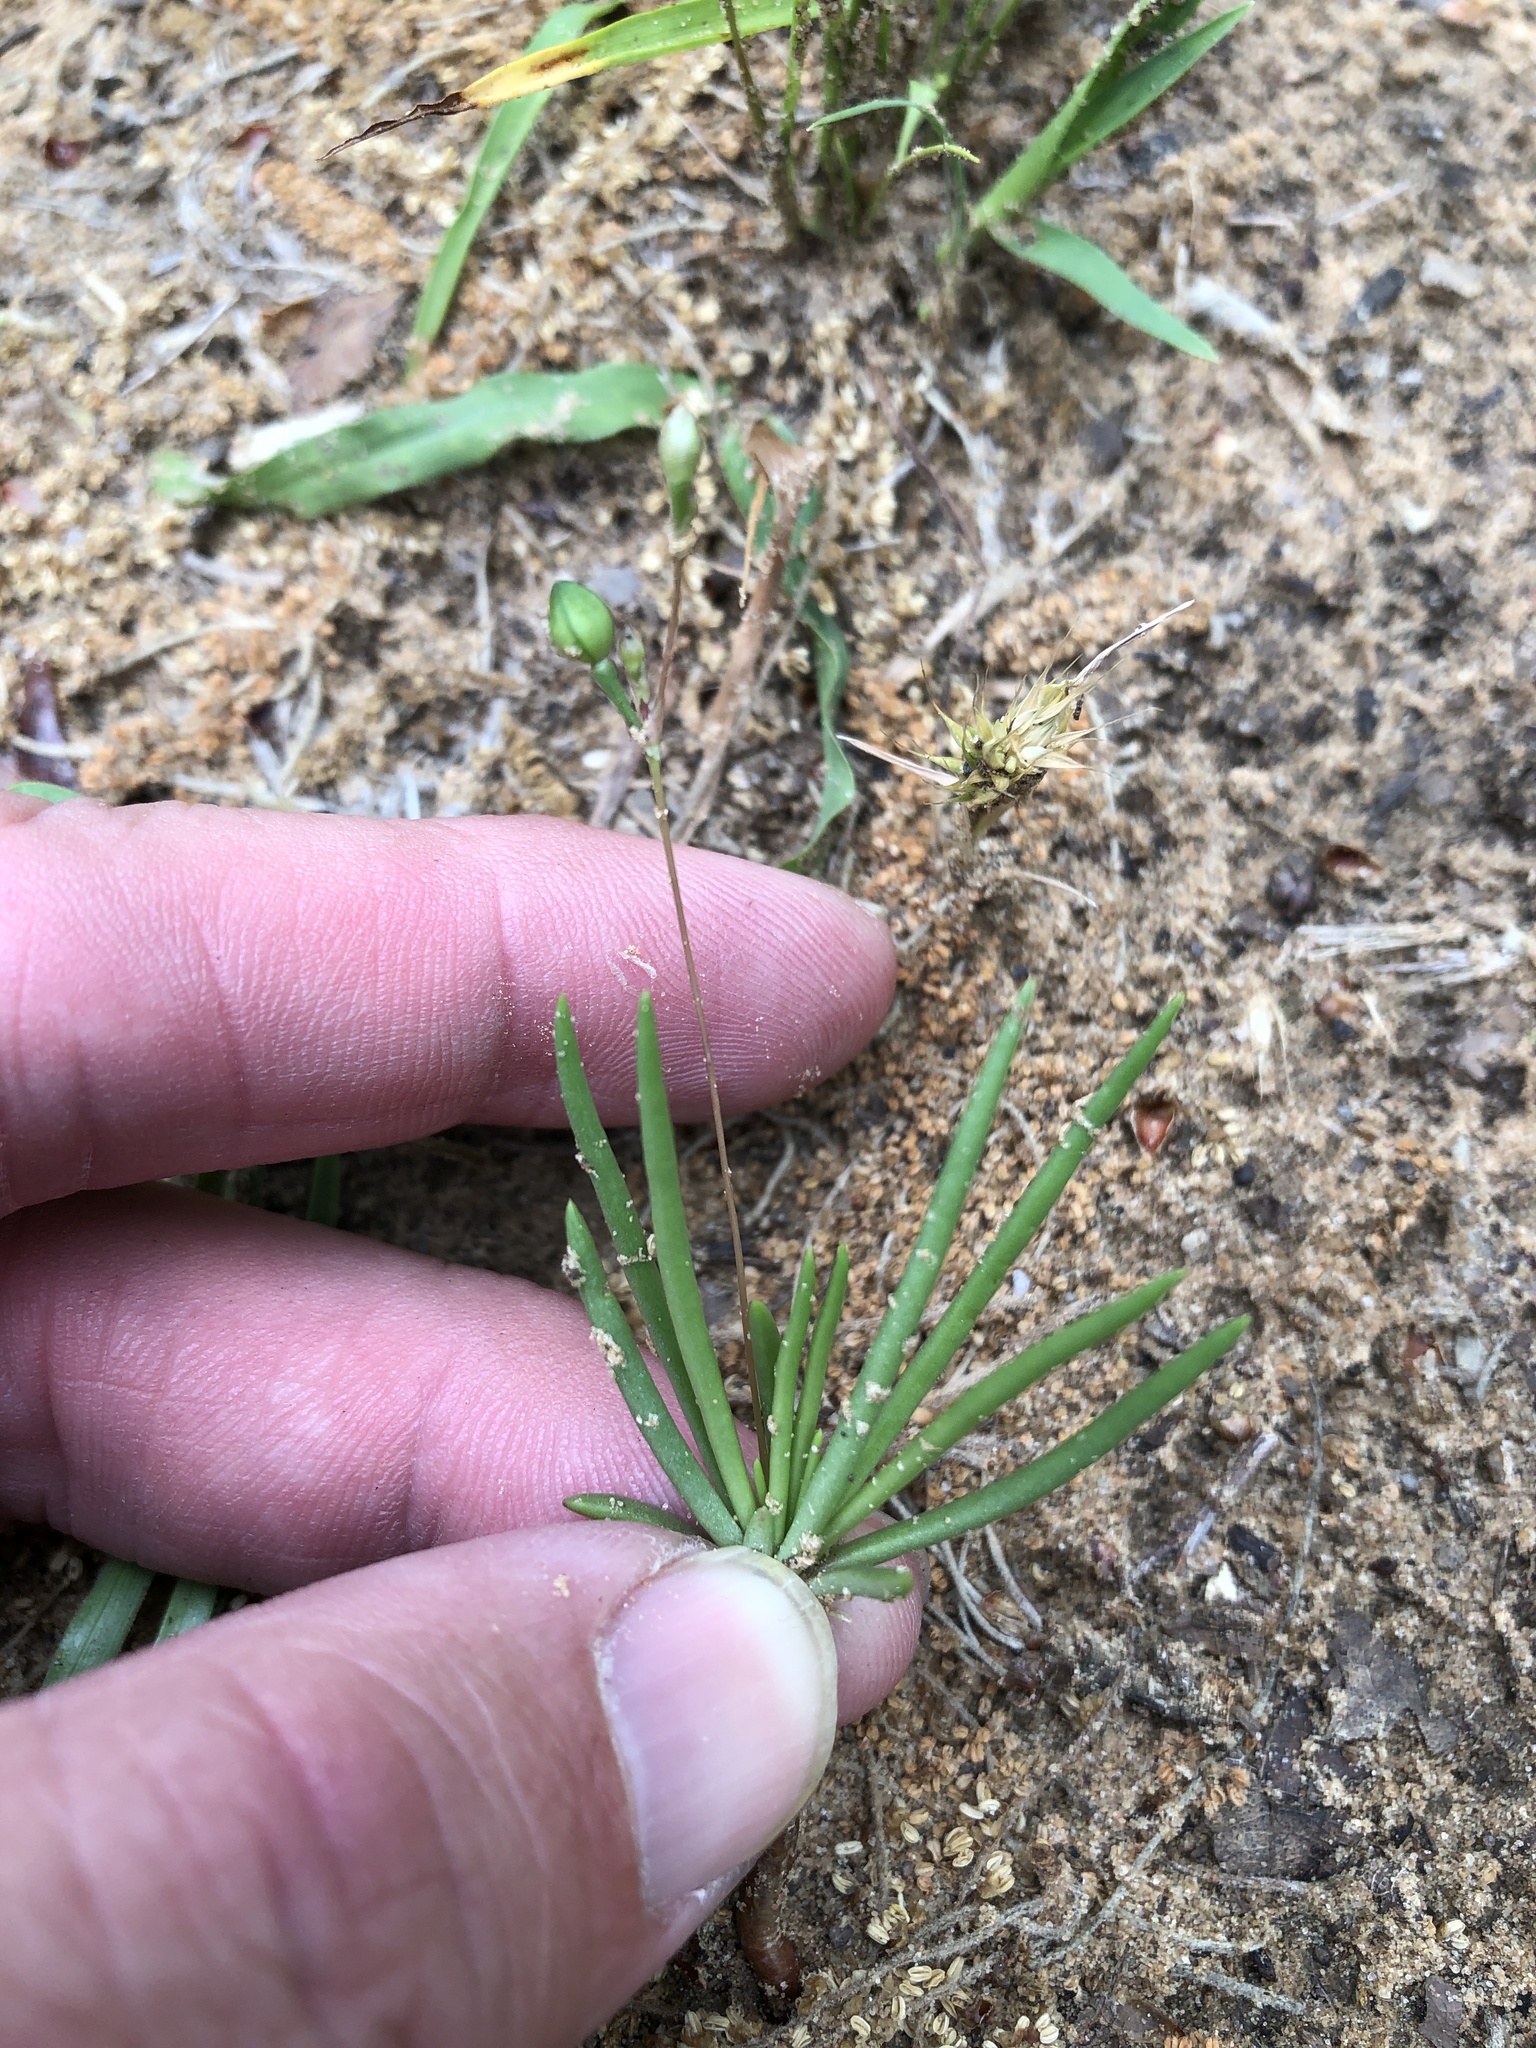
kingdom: Plantae
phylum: Tracheophyta
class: Magnoliopsida
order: Caryophyllales
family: Montiaceae
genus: Phemeranthus
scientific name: Phemeranthus parviflorus
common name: Sunbright
